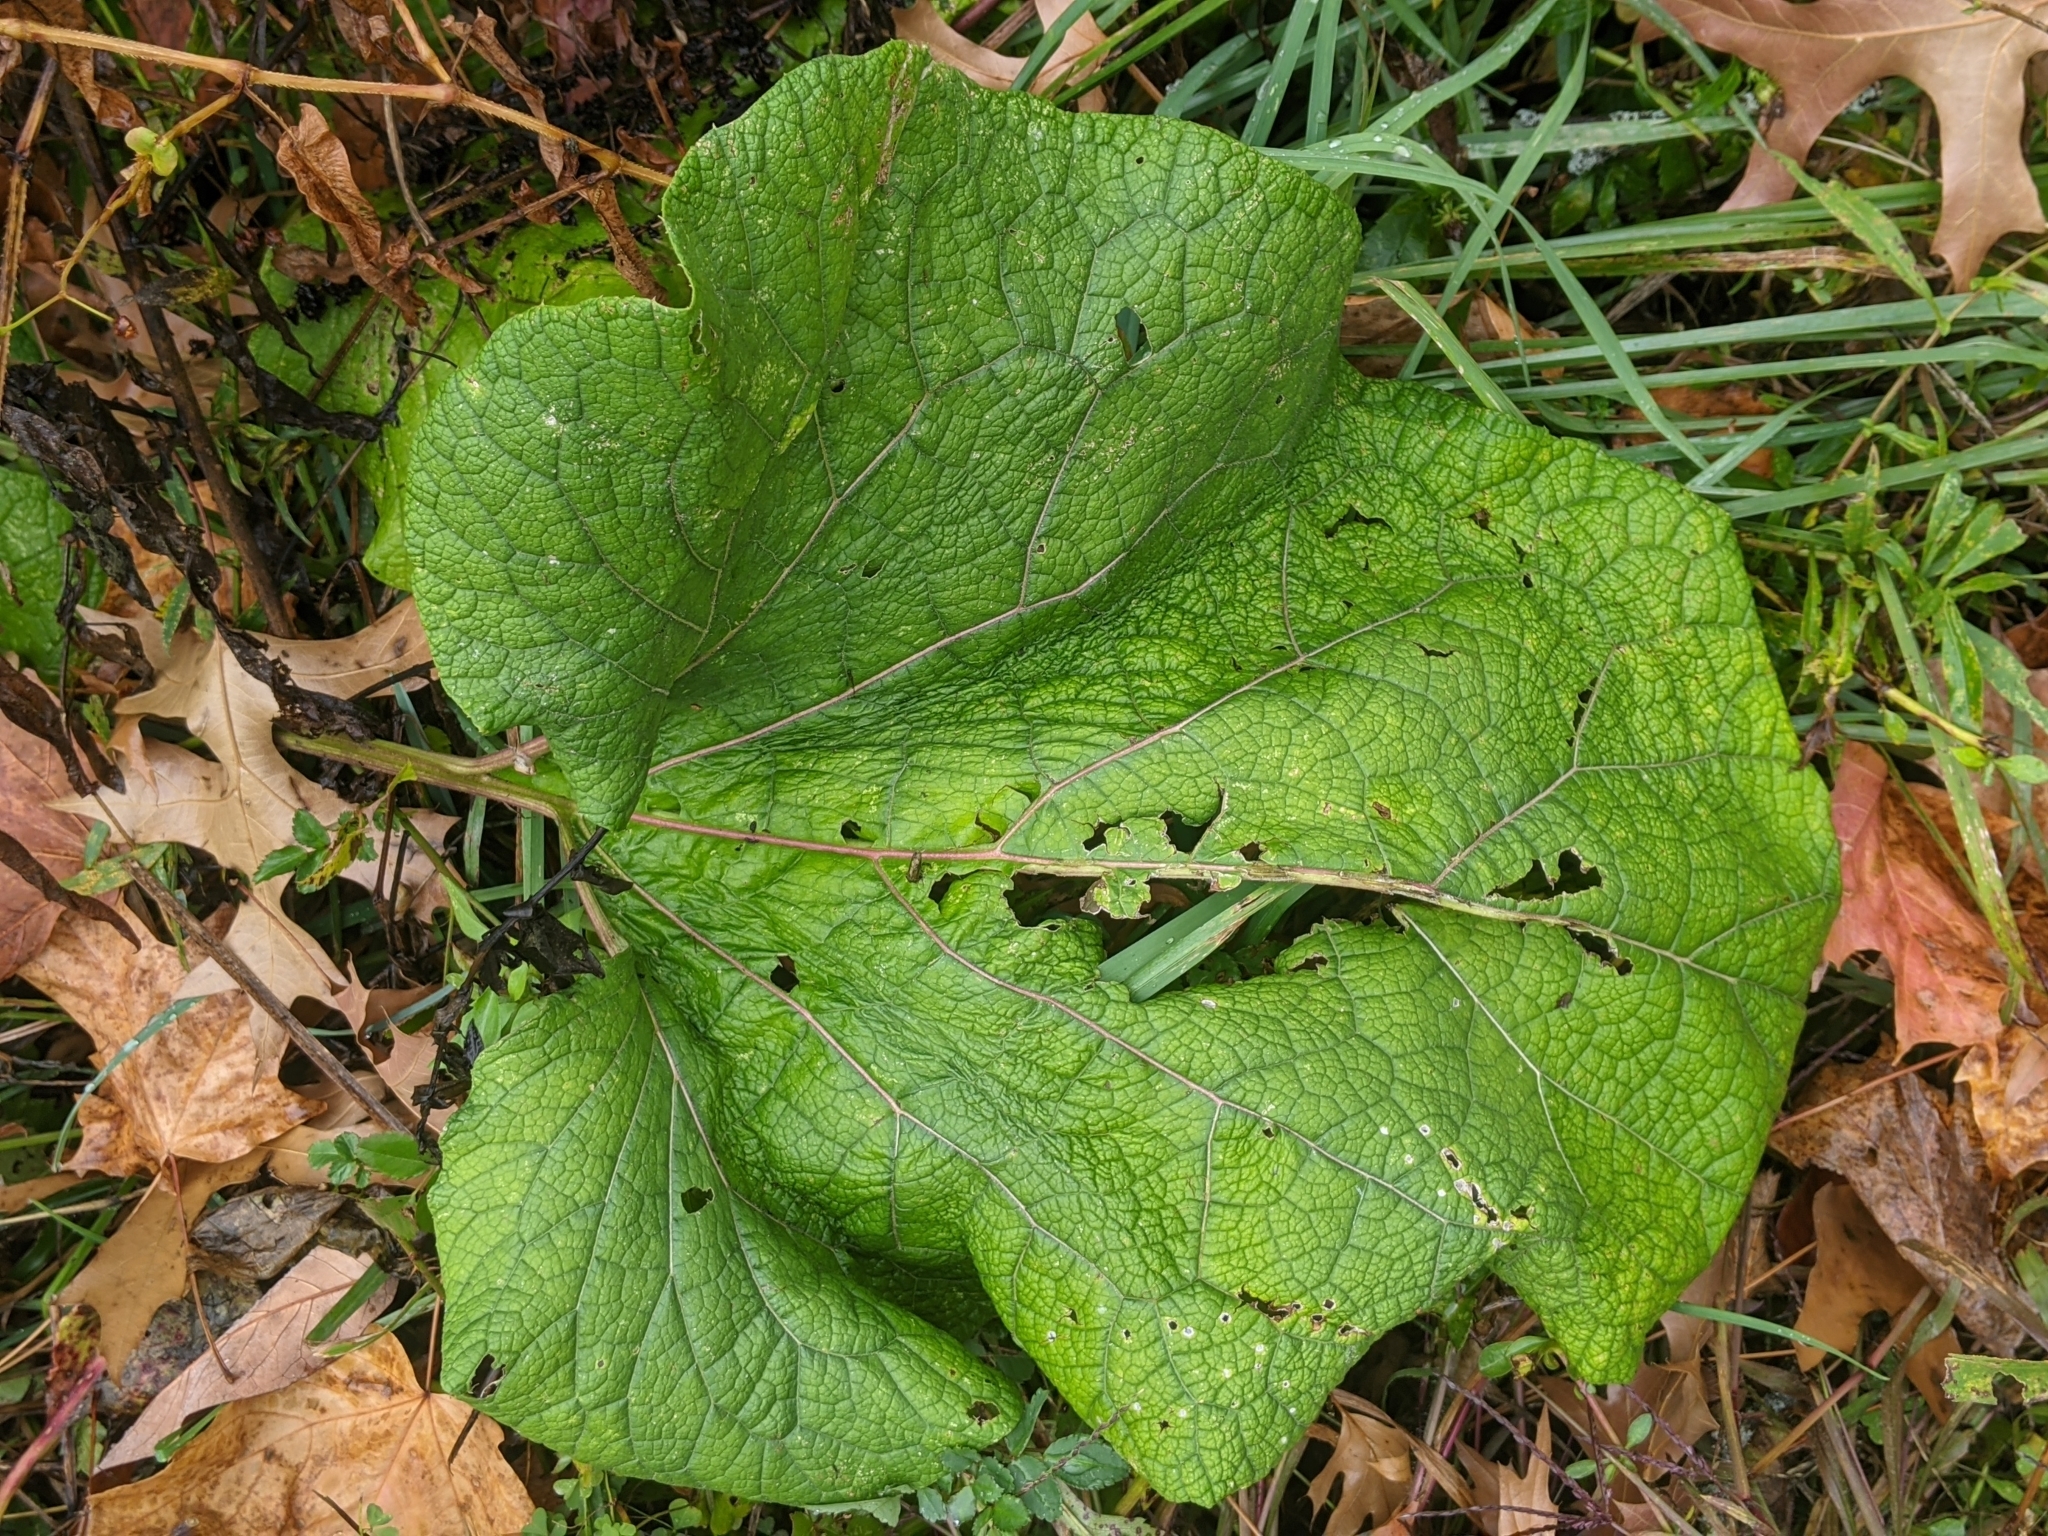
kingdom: Plantae
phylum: Tracheophyta
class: Magnoliopsida
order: Asterales
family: Asteraceae
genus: Arctium
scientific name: Arctium
